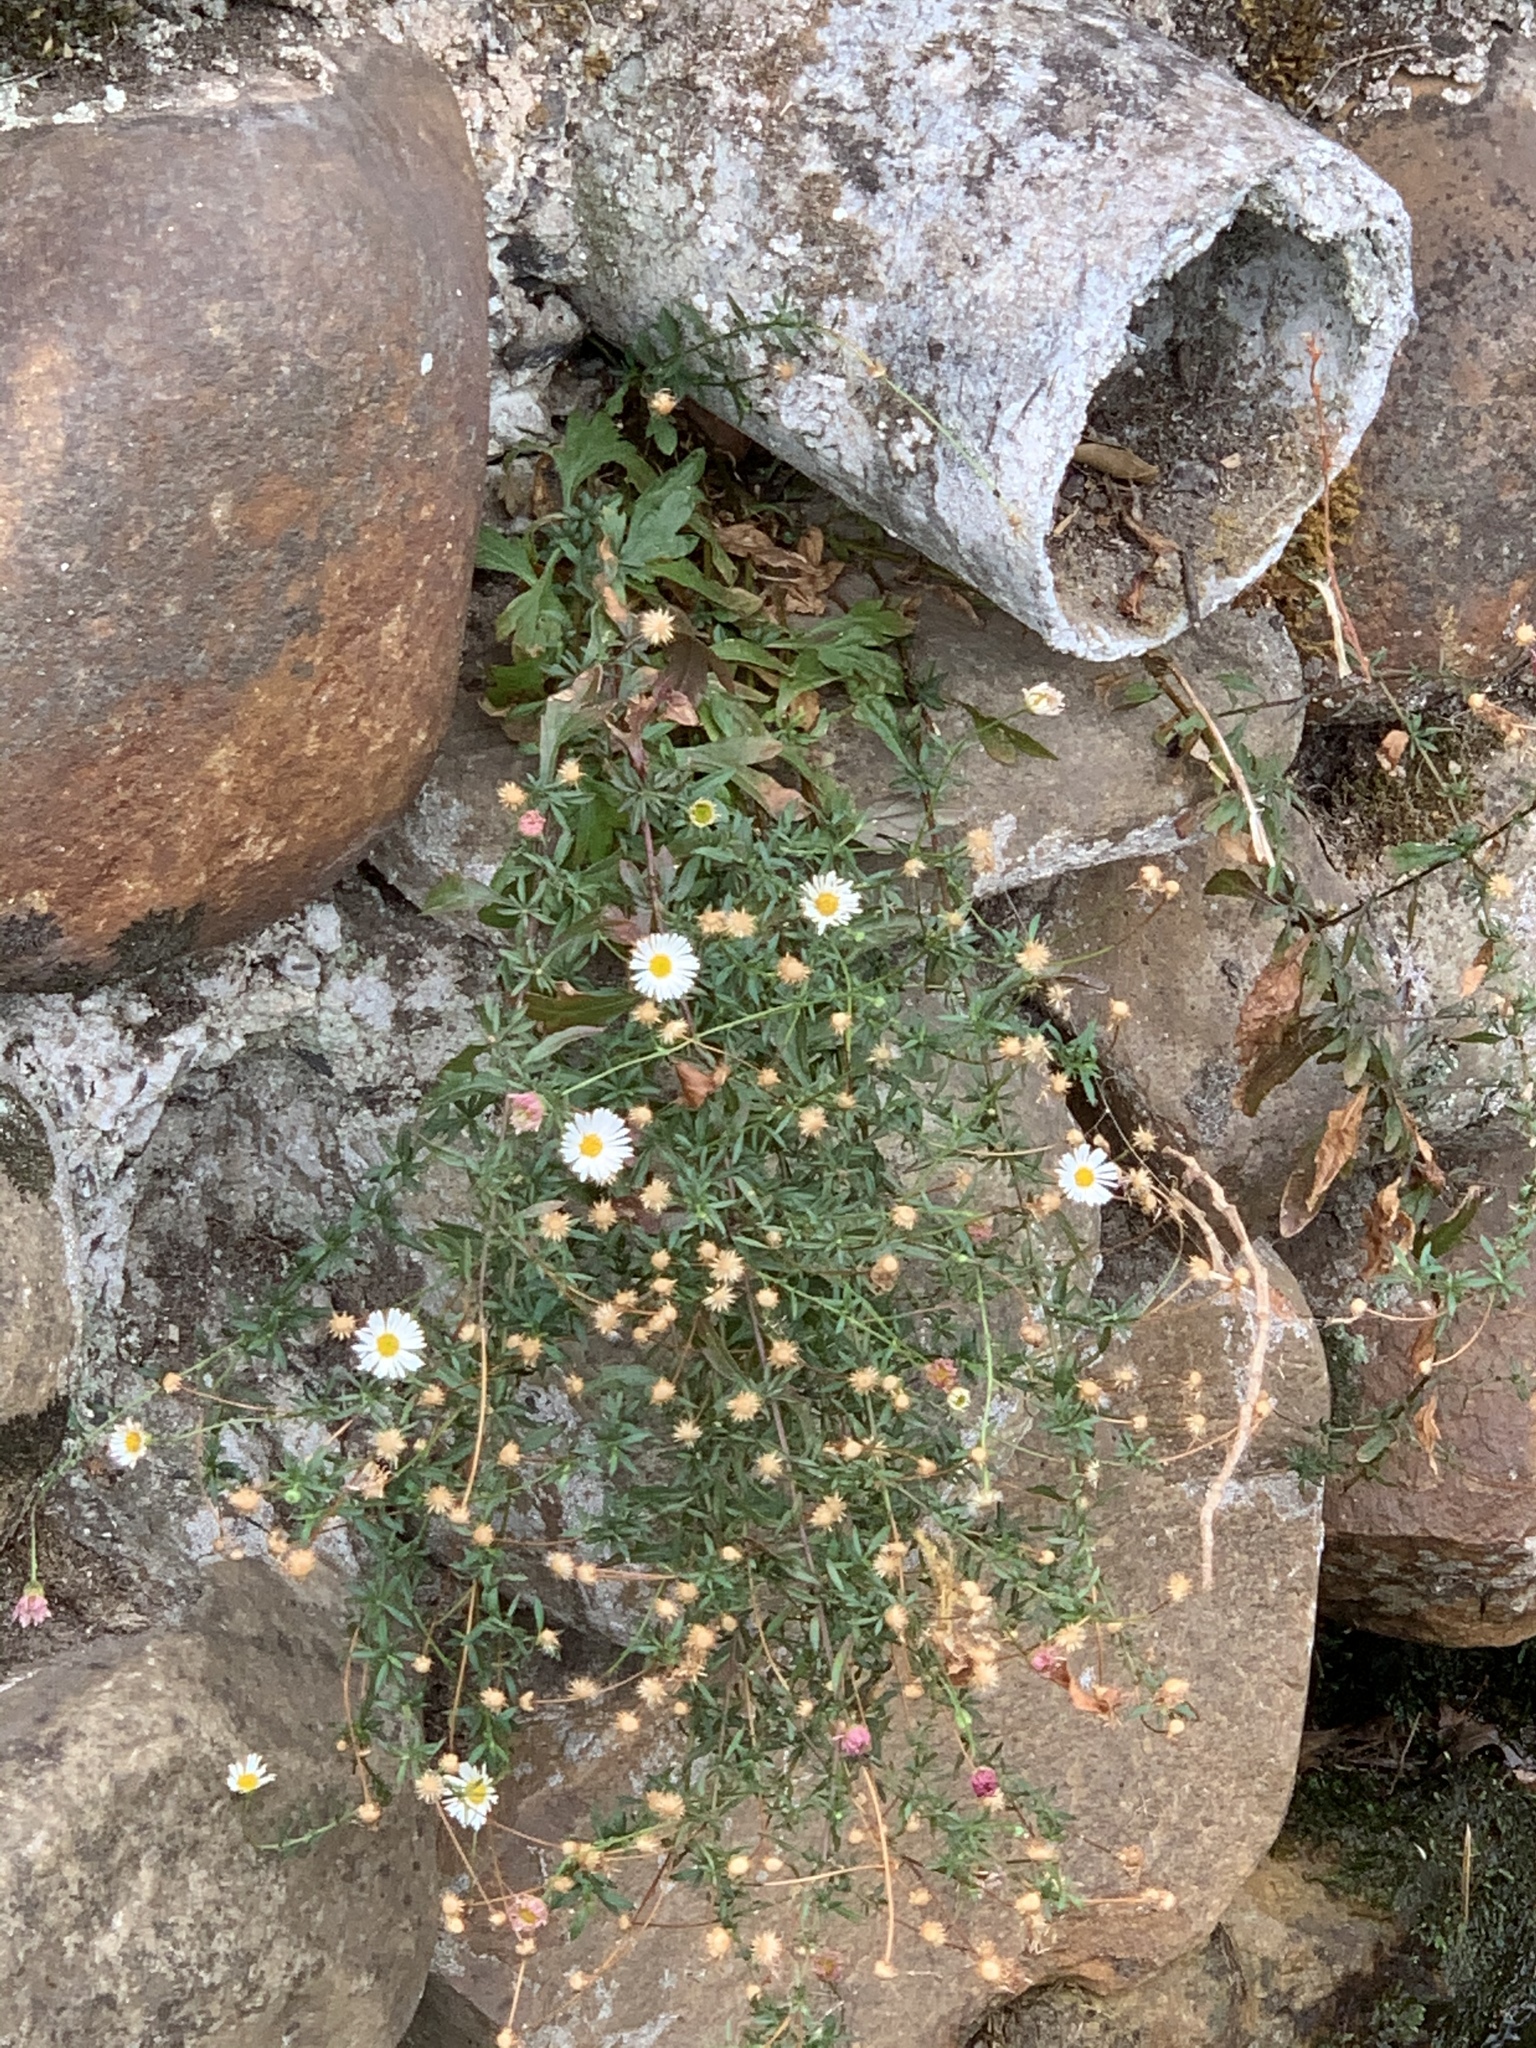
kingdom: Plantae
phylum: Tracheophyta
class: Magnoliopsida
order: Asterales
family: Asteraceae
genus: Erigeron
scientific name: Erigeron karvinskianus
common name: Mexican fleabane
